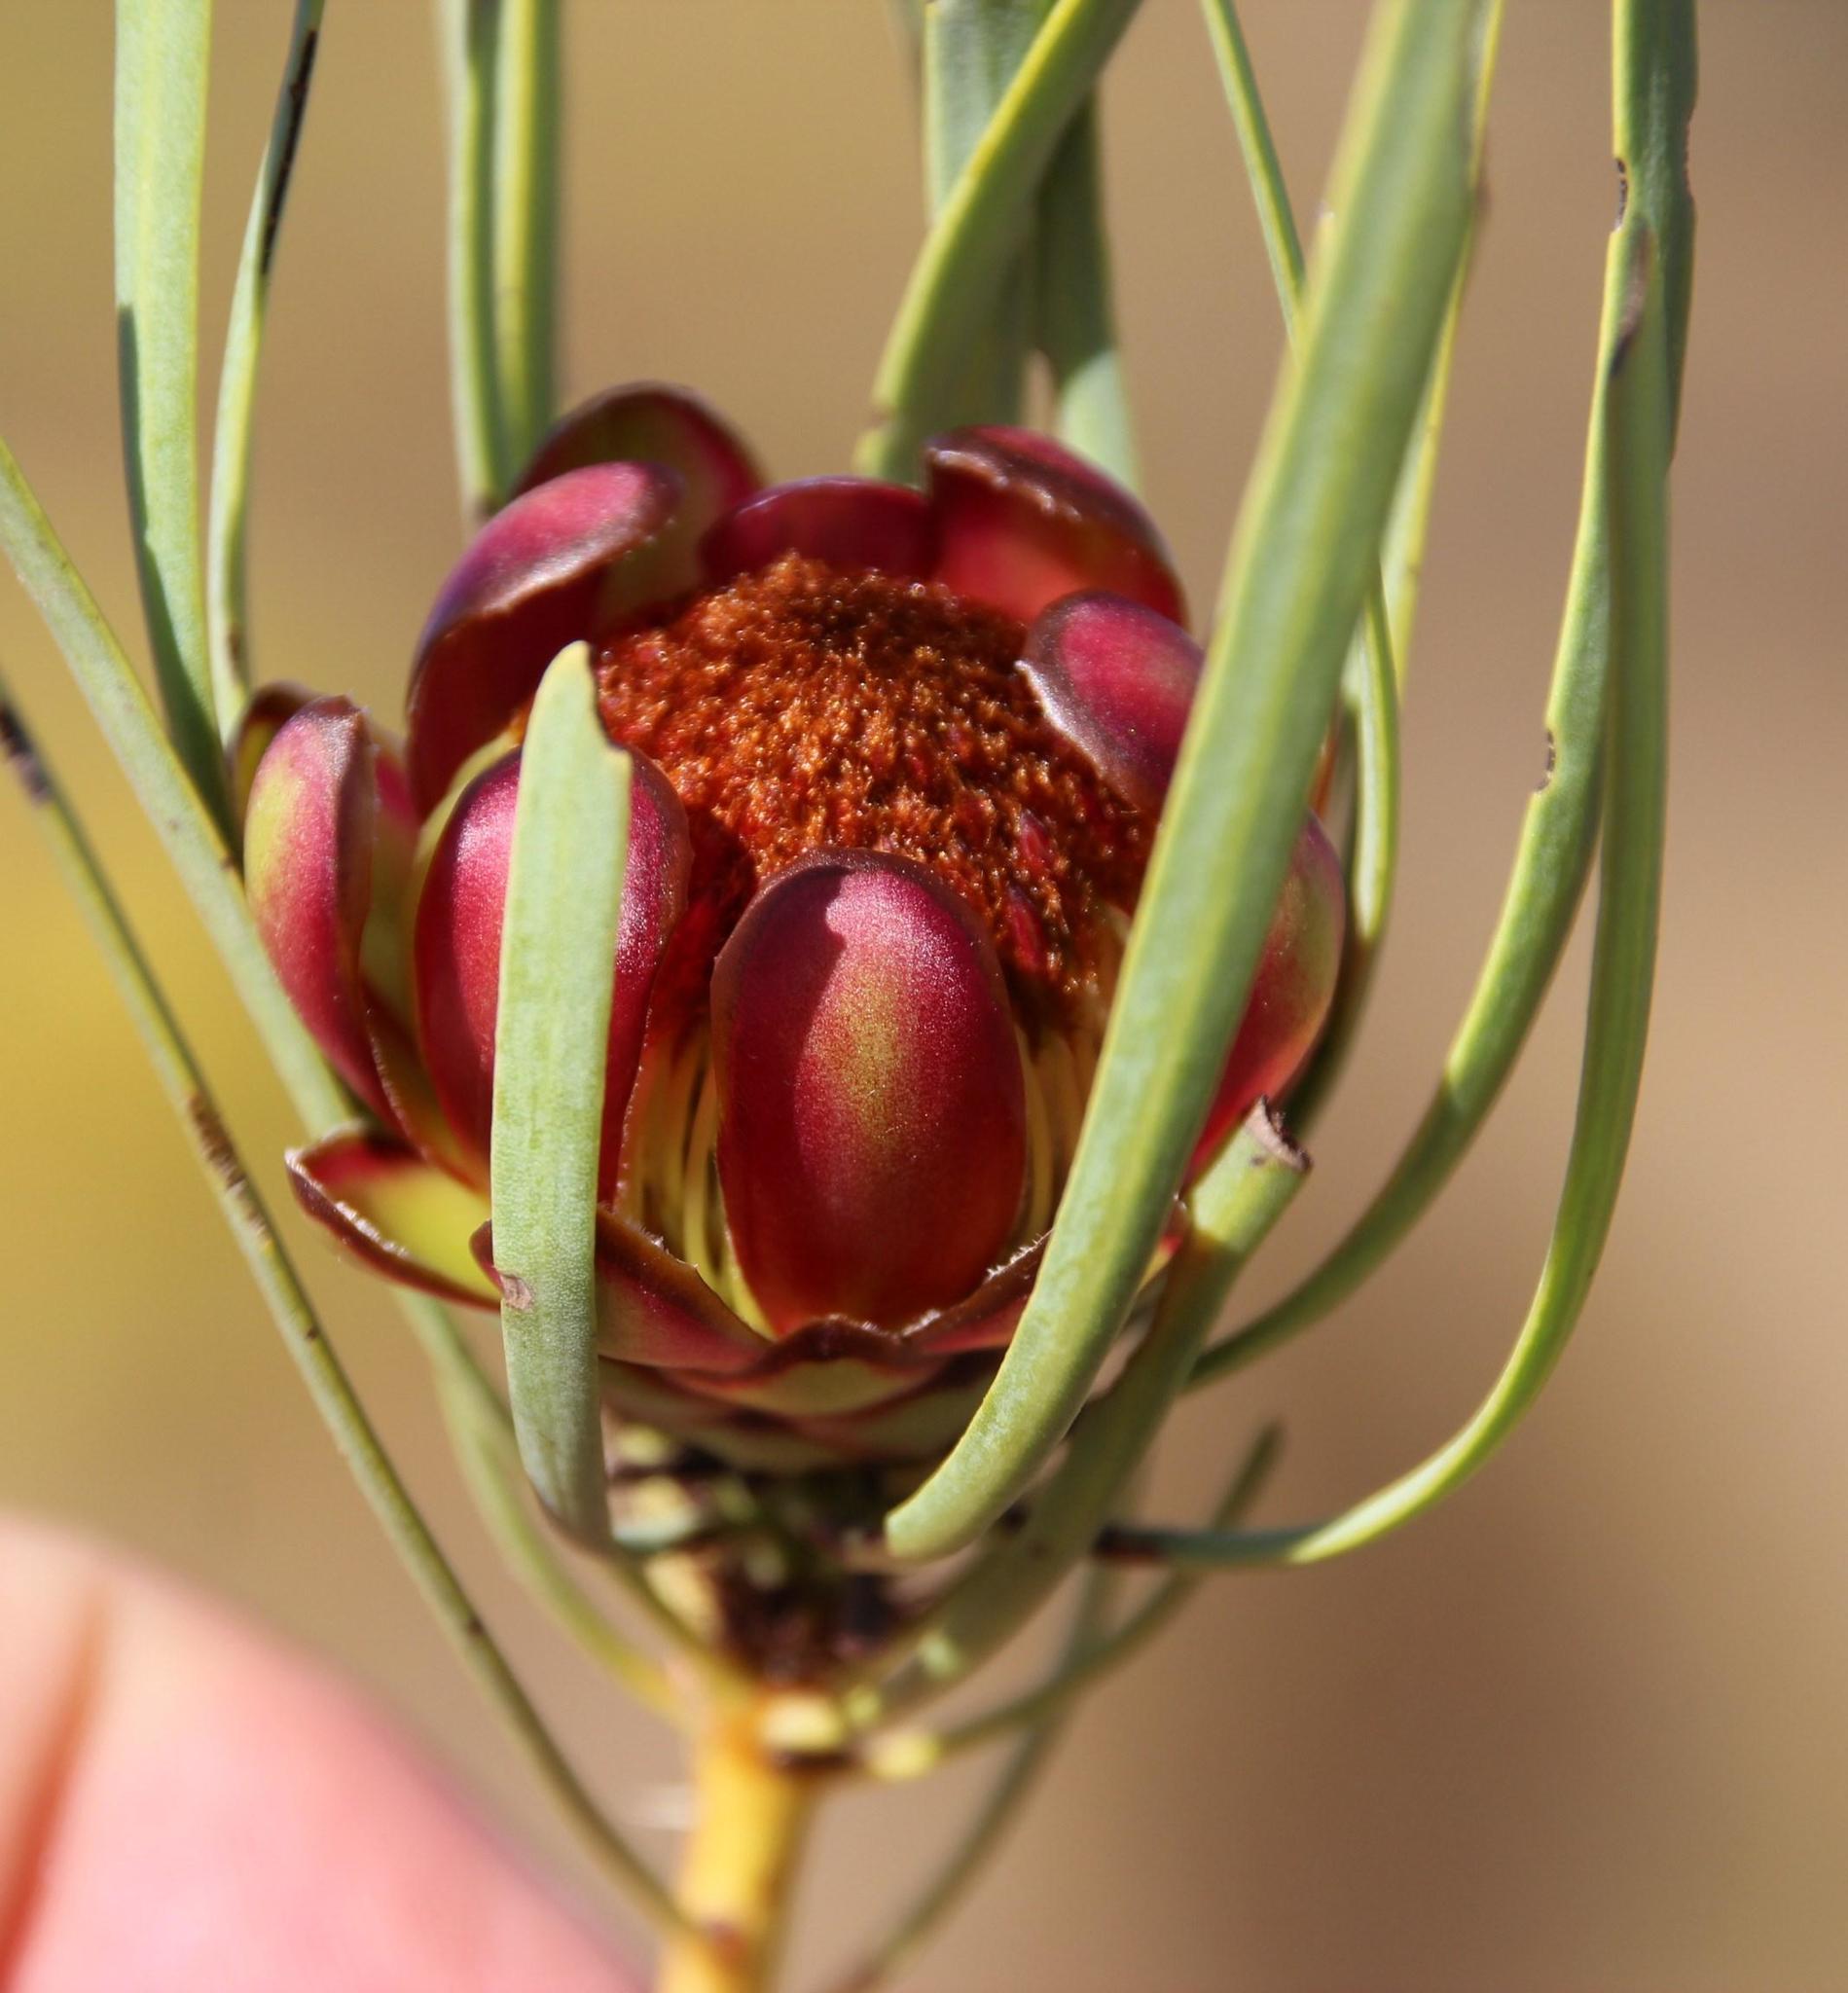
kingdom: Plantae
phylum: Tracheophyta
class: Magnoliopsida
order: Proteales
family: Proteaceae
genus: Protea
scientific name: Protea acuminata
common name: Black-rim sugarbush
